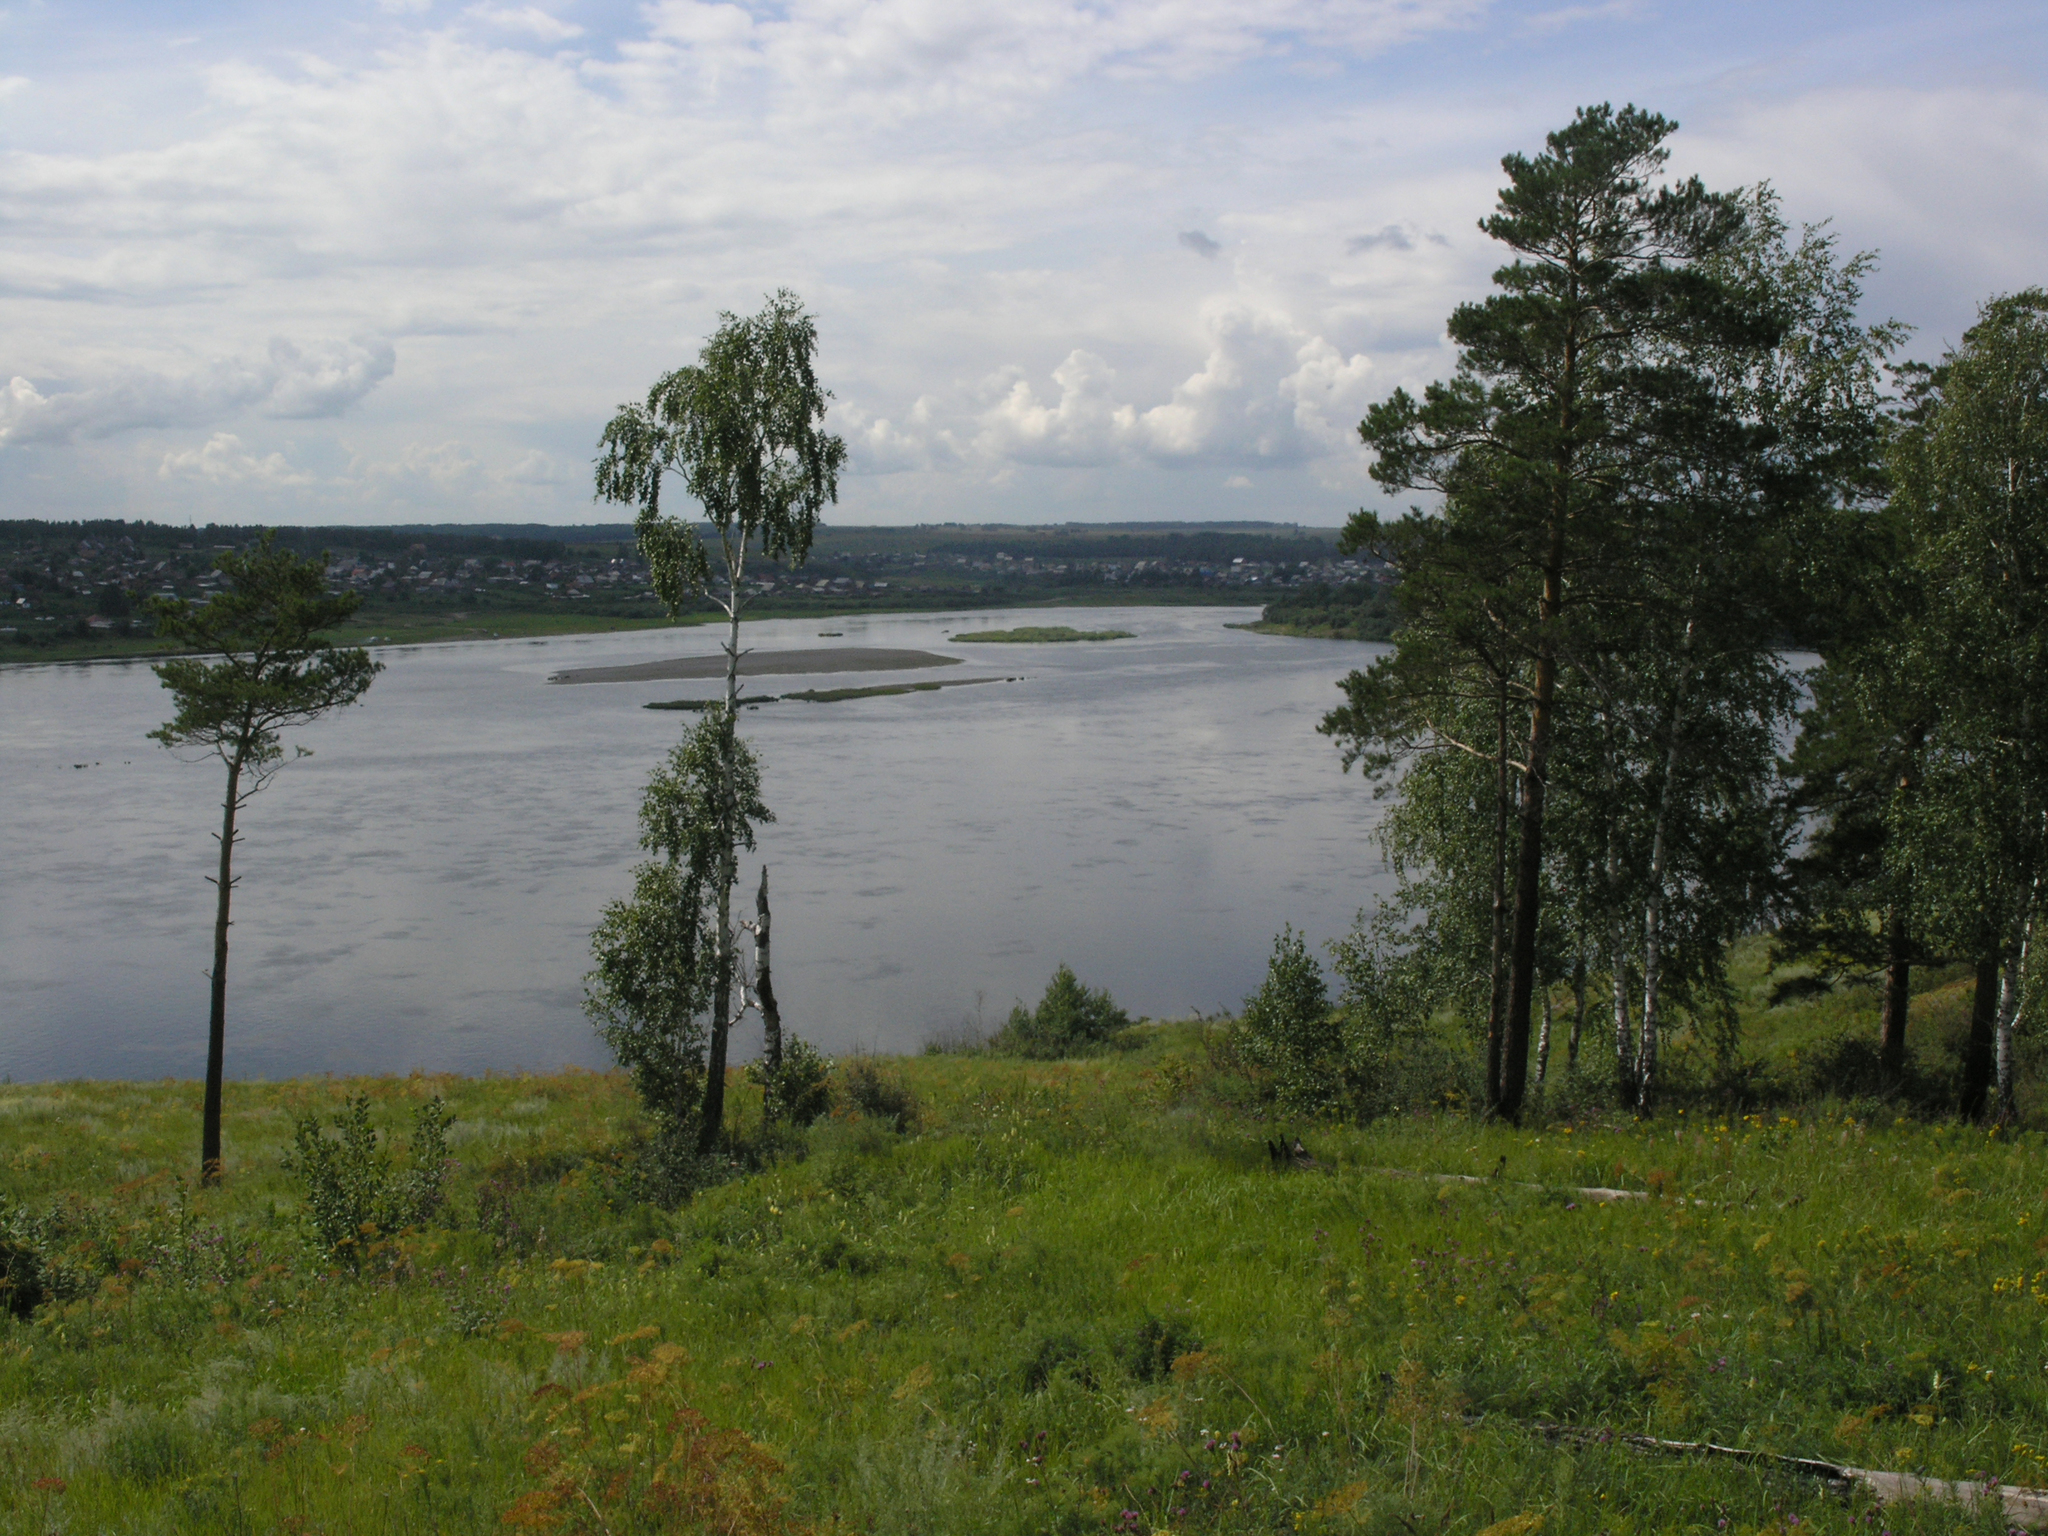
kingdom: Plantae
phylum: Tracheophyta
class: Magnoliopsida
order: Fagales
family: Betulaceae
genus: Betula
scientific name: Betula pendula
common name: Silver birch
